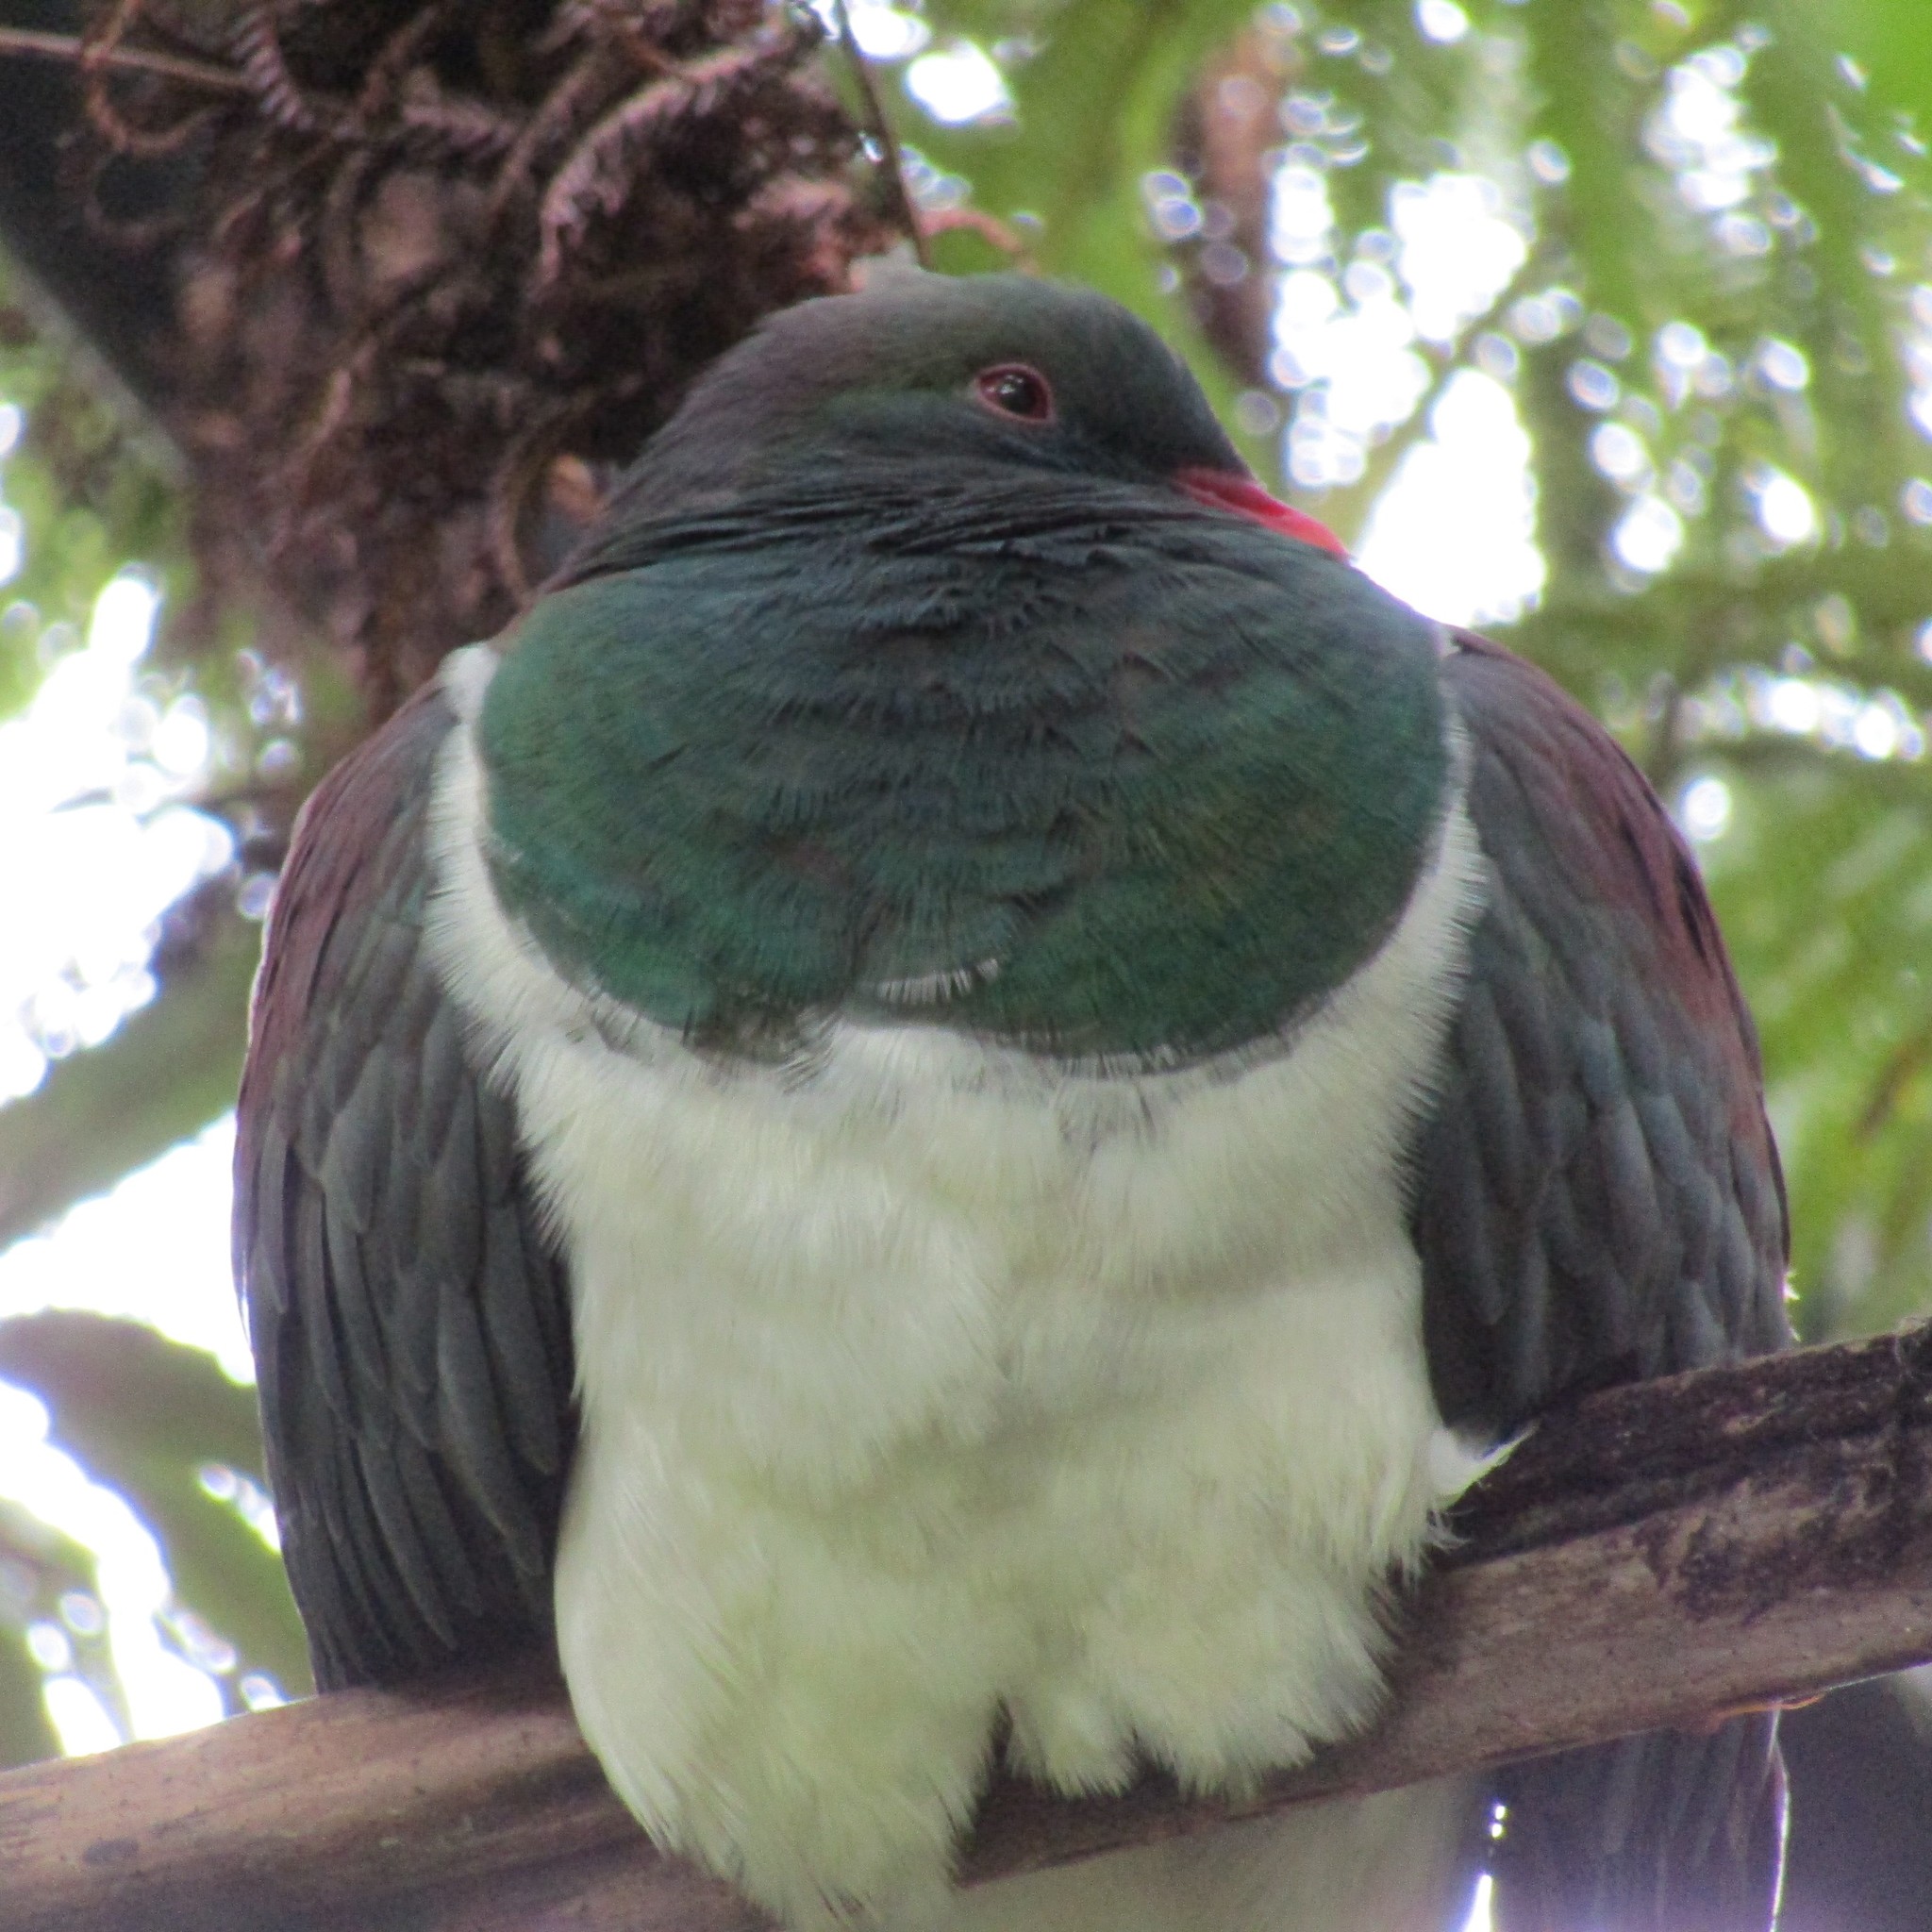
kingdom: Animalia
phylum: Chordata
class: Aves
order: Columbiformes
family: Columbidae
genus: Hemiphaga
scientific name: Hemiphaga novaeseelandiae
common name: New zealand pigeon
